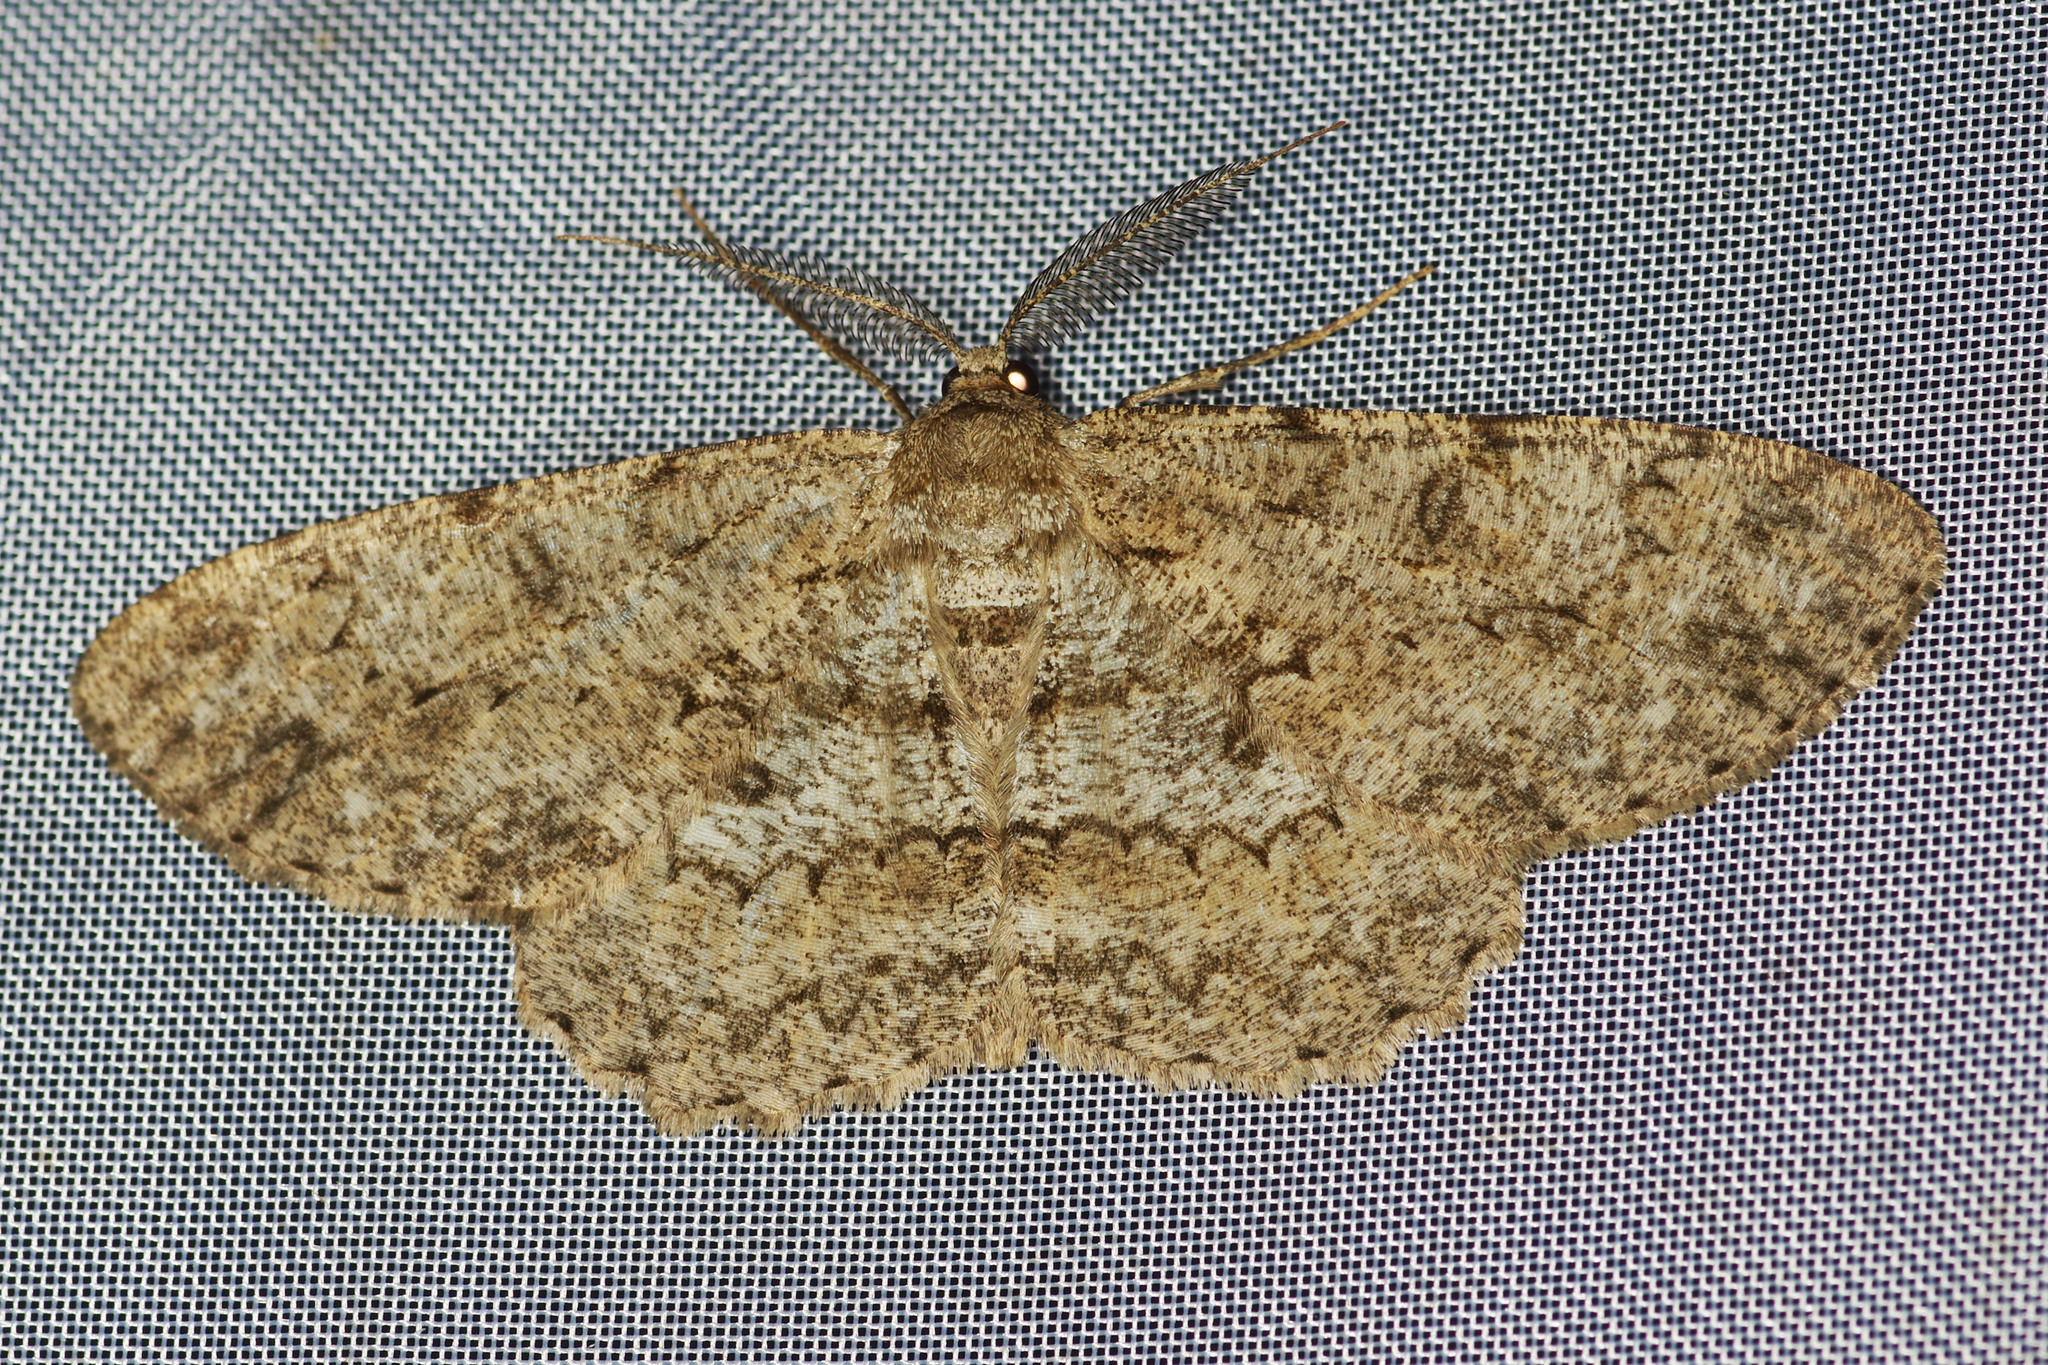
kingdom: Animalia
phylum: Arthropoda
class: Insecta
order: Lepidoptera
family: Geometridae
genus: Hypomecis
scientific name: Hypomecis punctinalis
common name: Pale oak beauty
